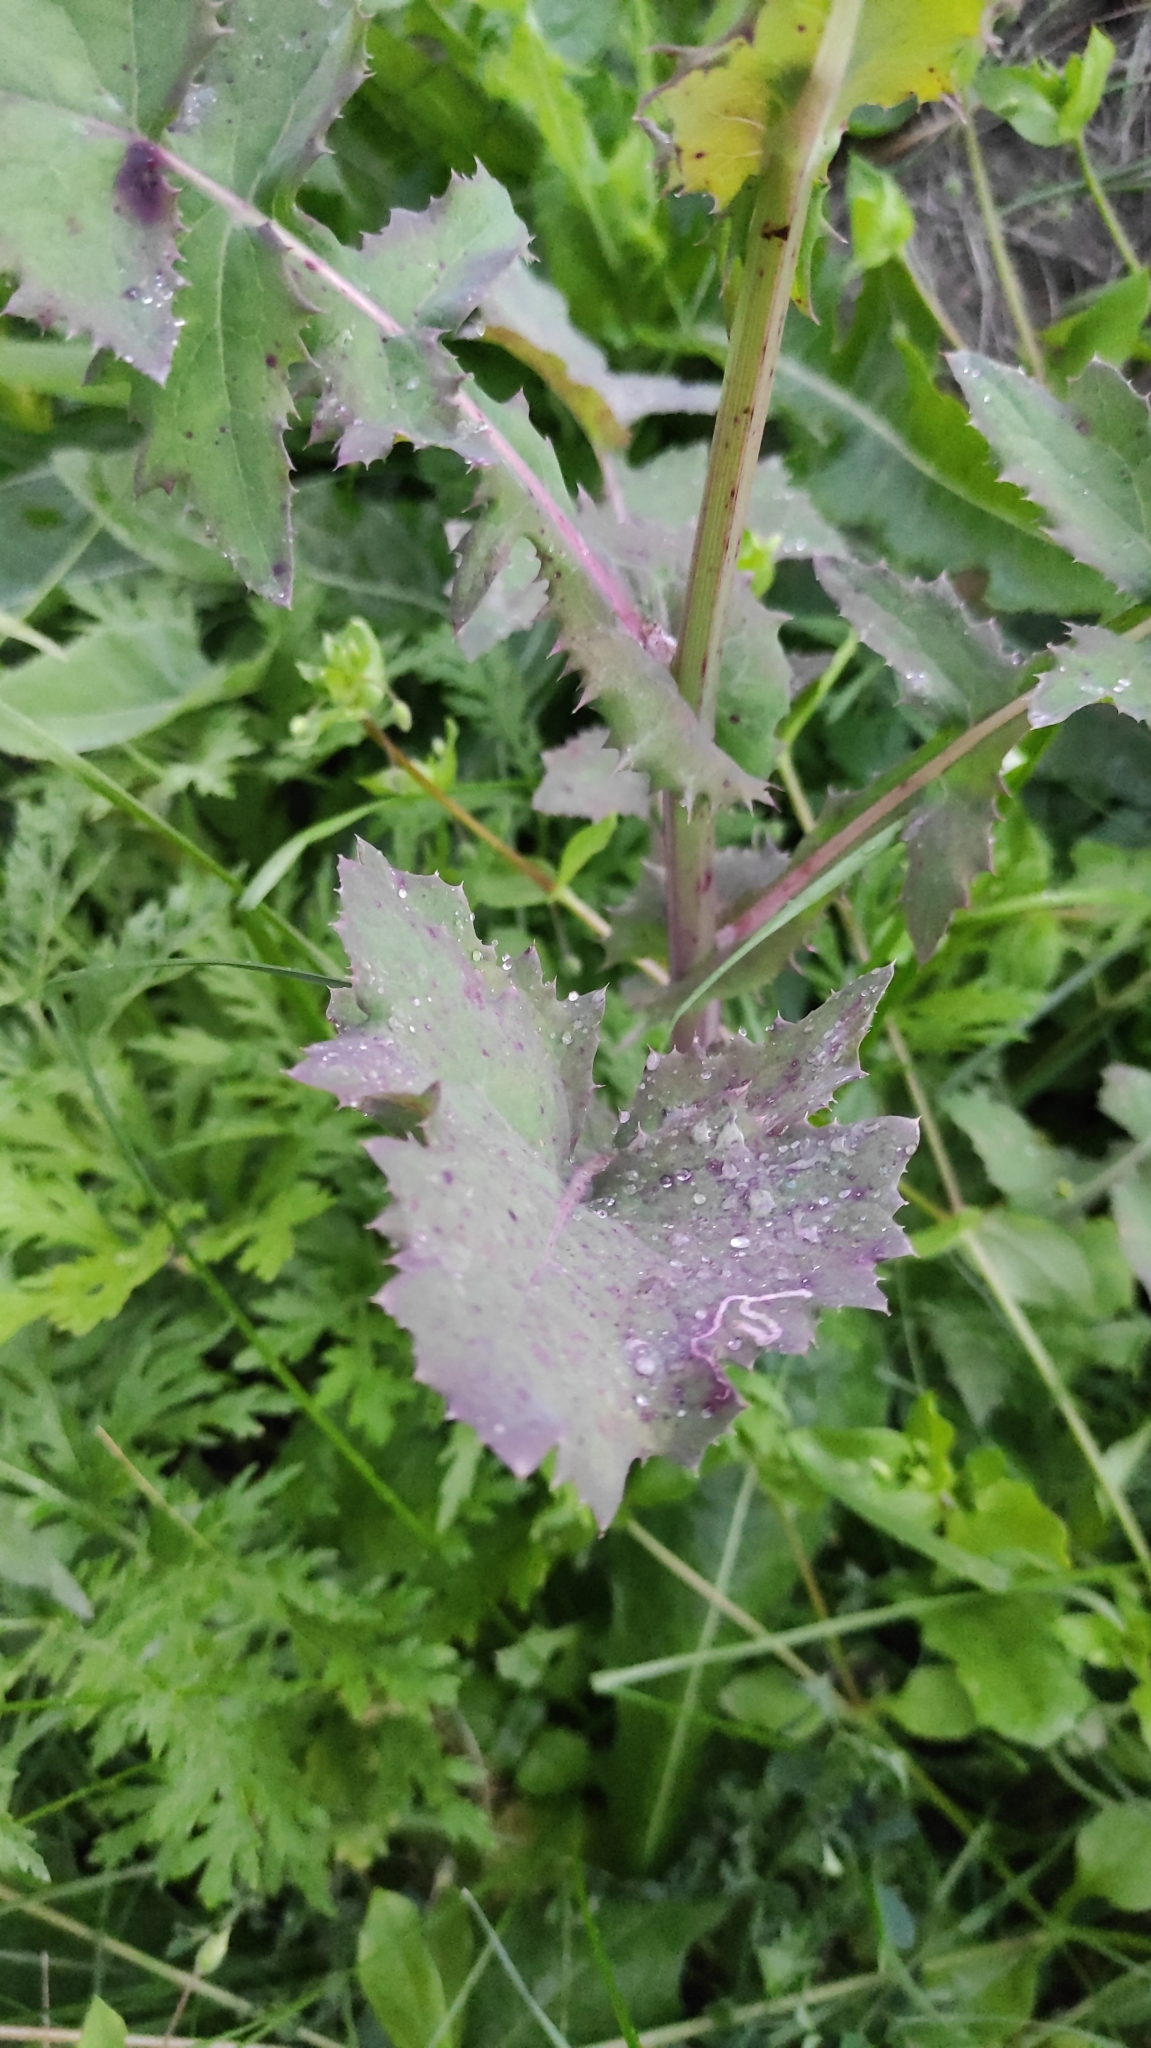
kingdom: Plantae
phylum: Tracheophyta
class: Magnoliopsida
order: Asterales
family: Asteraceae
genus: Sonchus
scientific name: Sonchus oleraceus
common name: Common sowthistle
